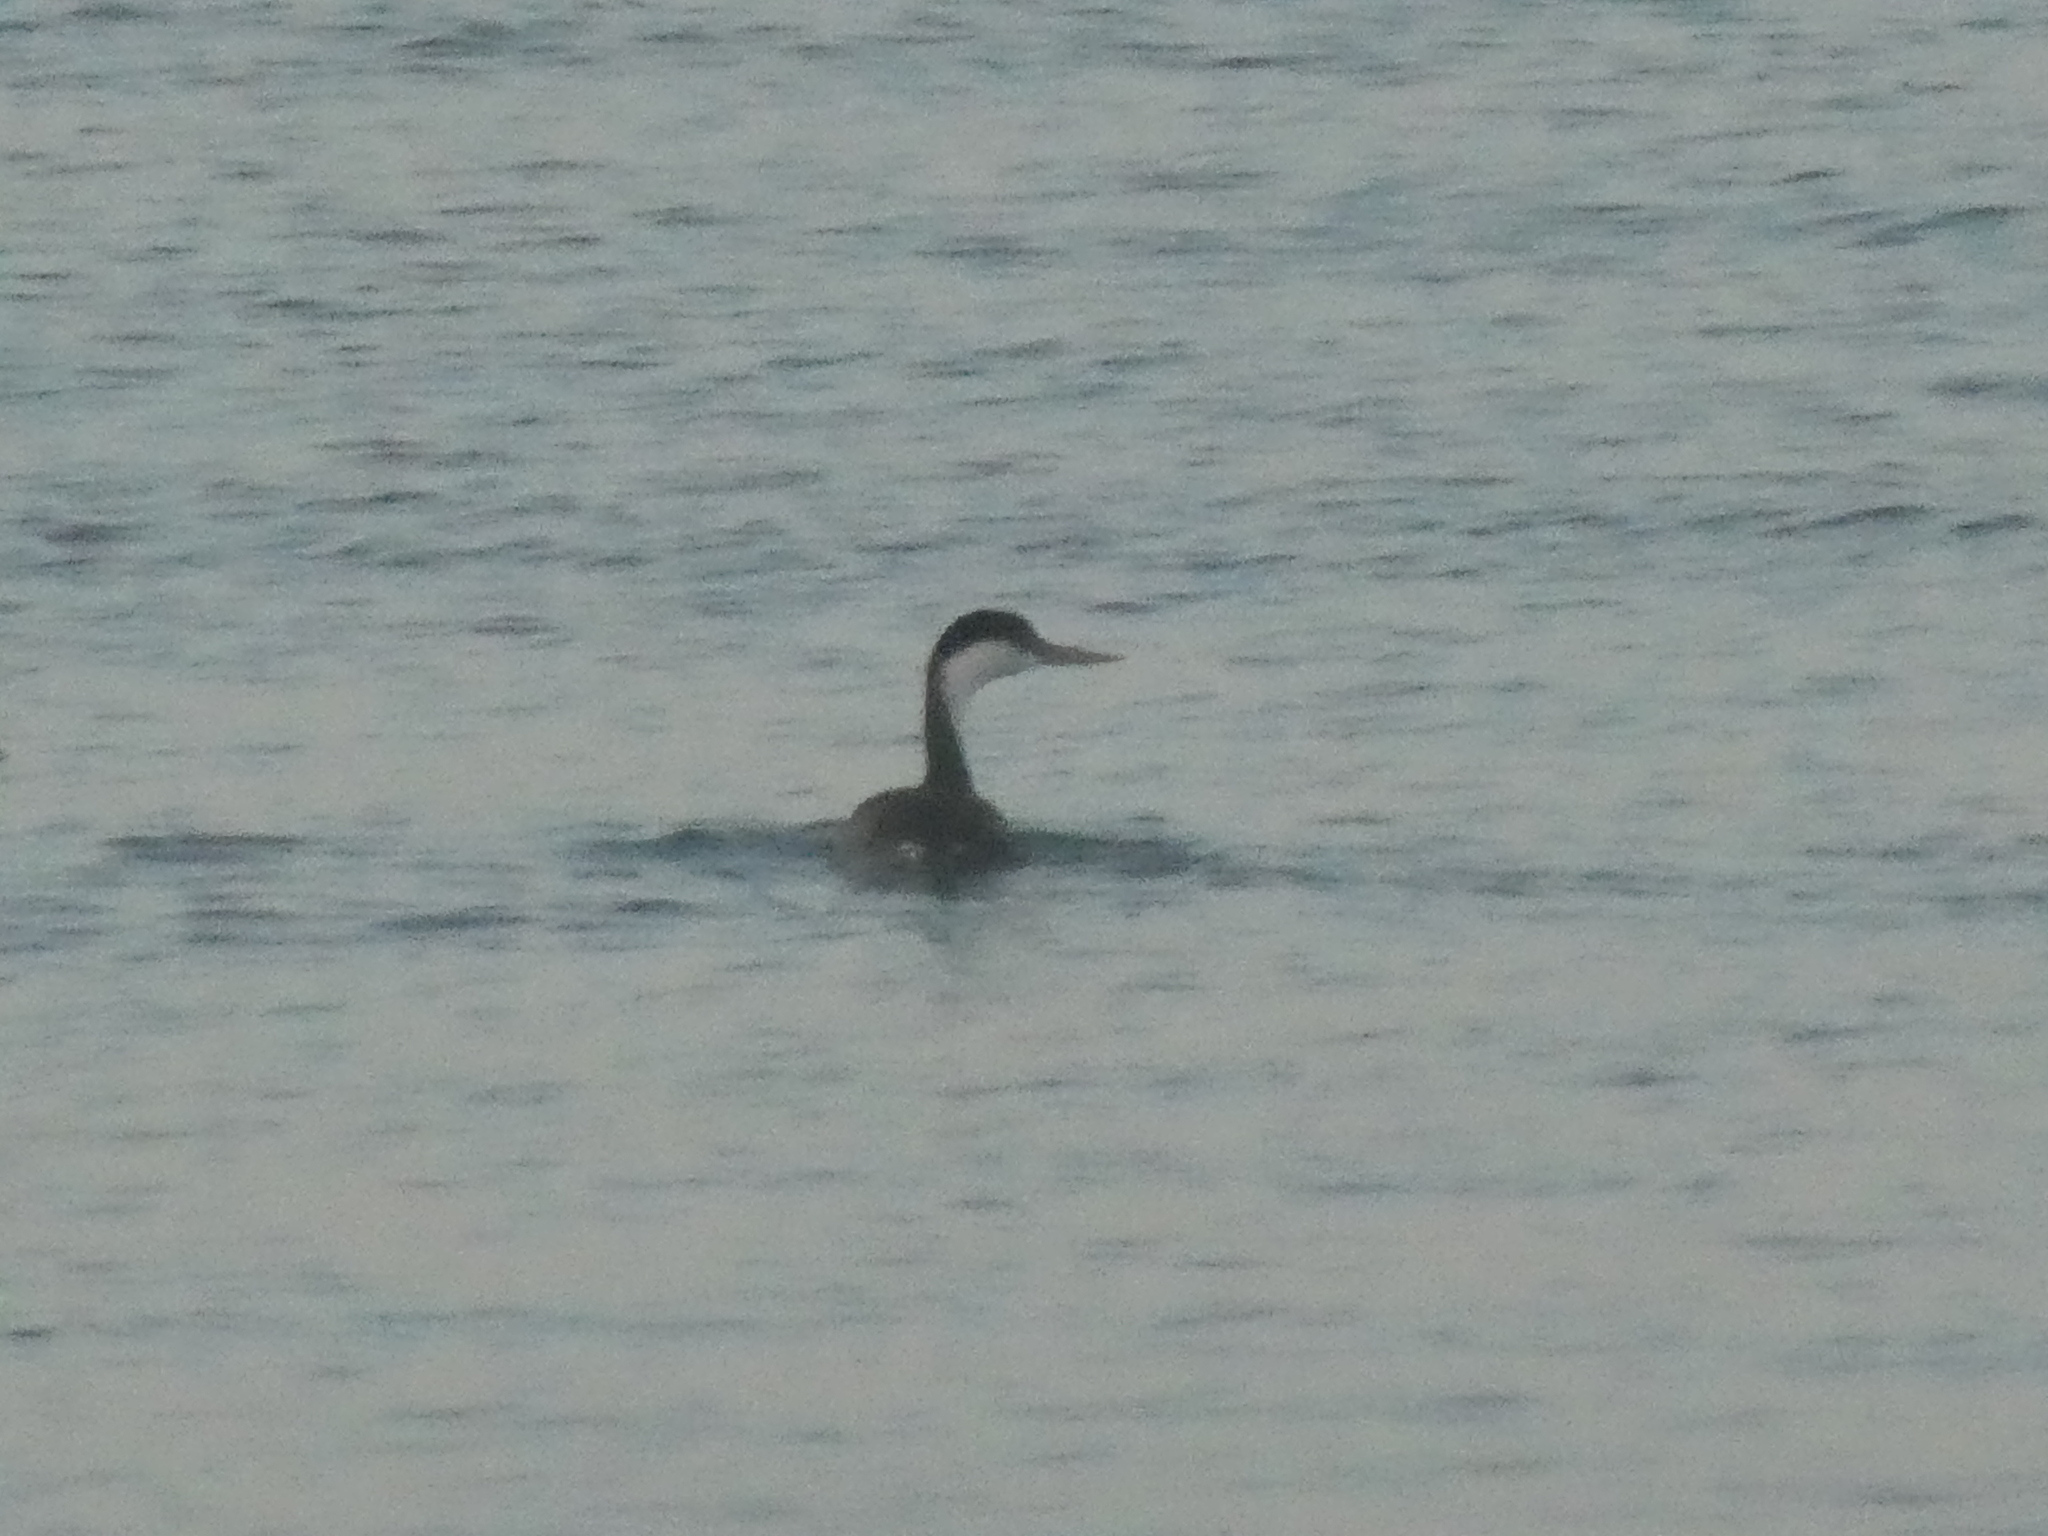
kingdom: Animalia
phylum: Chordata
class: Aves
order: Podicipediformes
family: Podicipedidae
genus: Aechmophorus
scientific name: Aechmophorus occidentalis
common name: Western grebe
